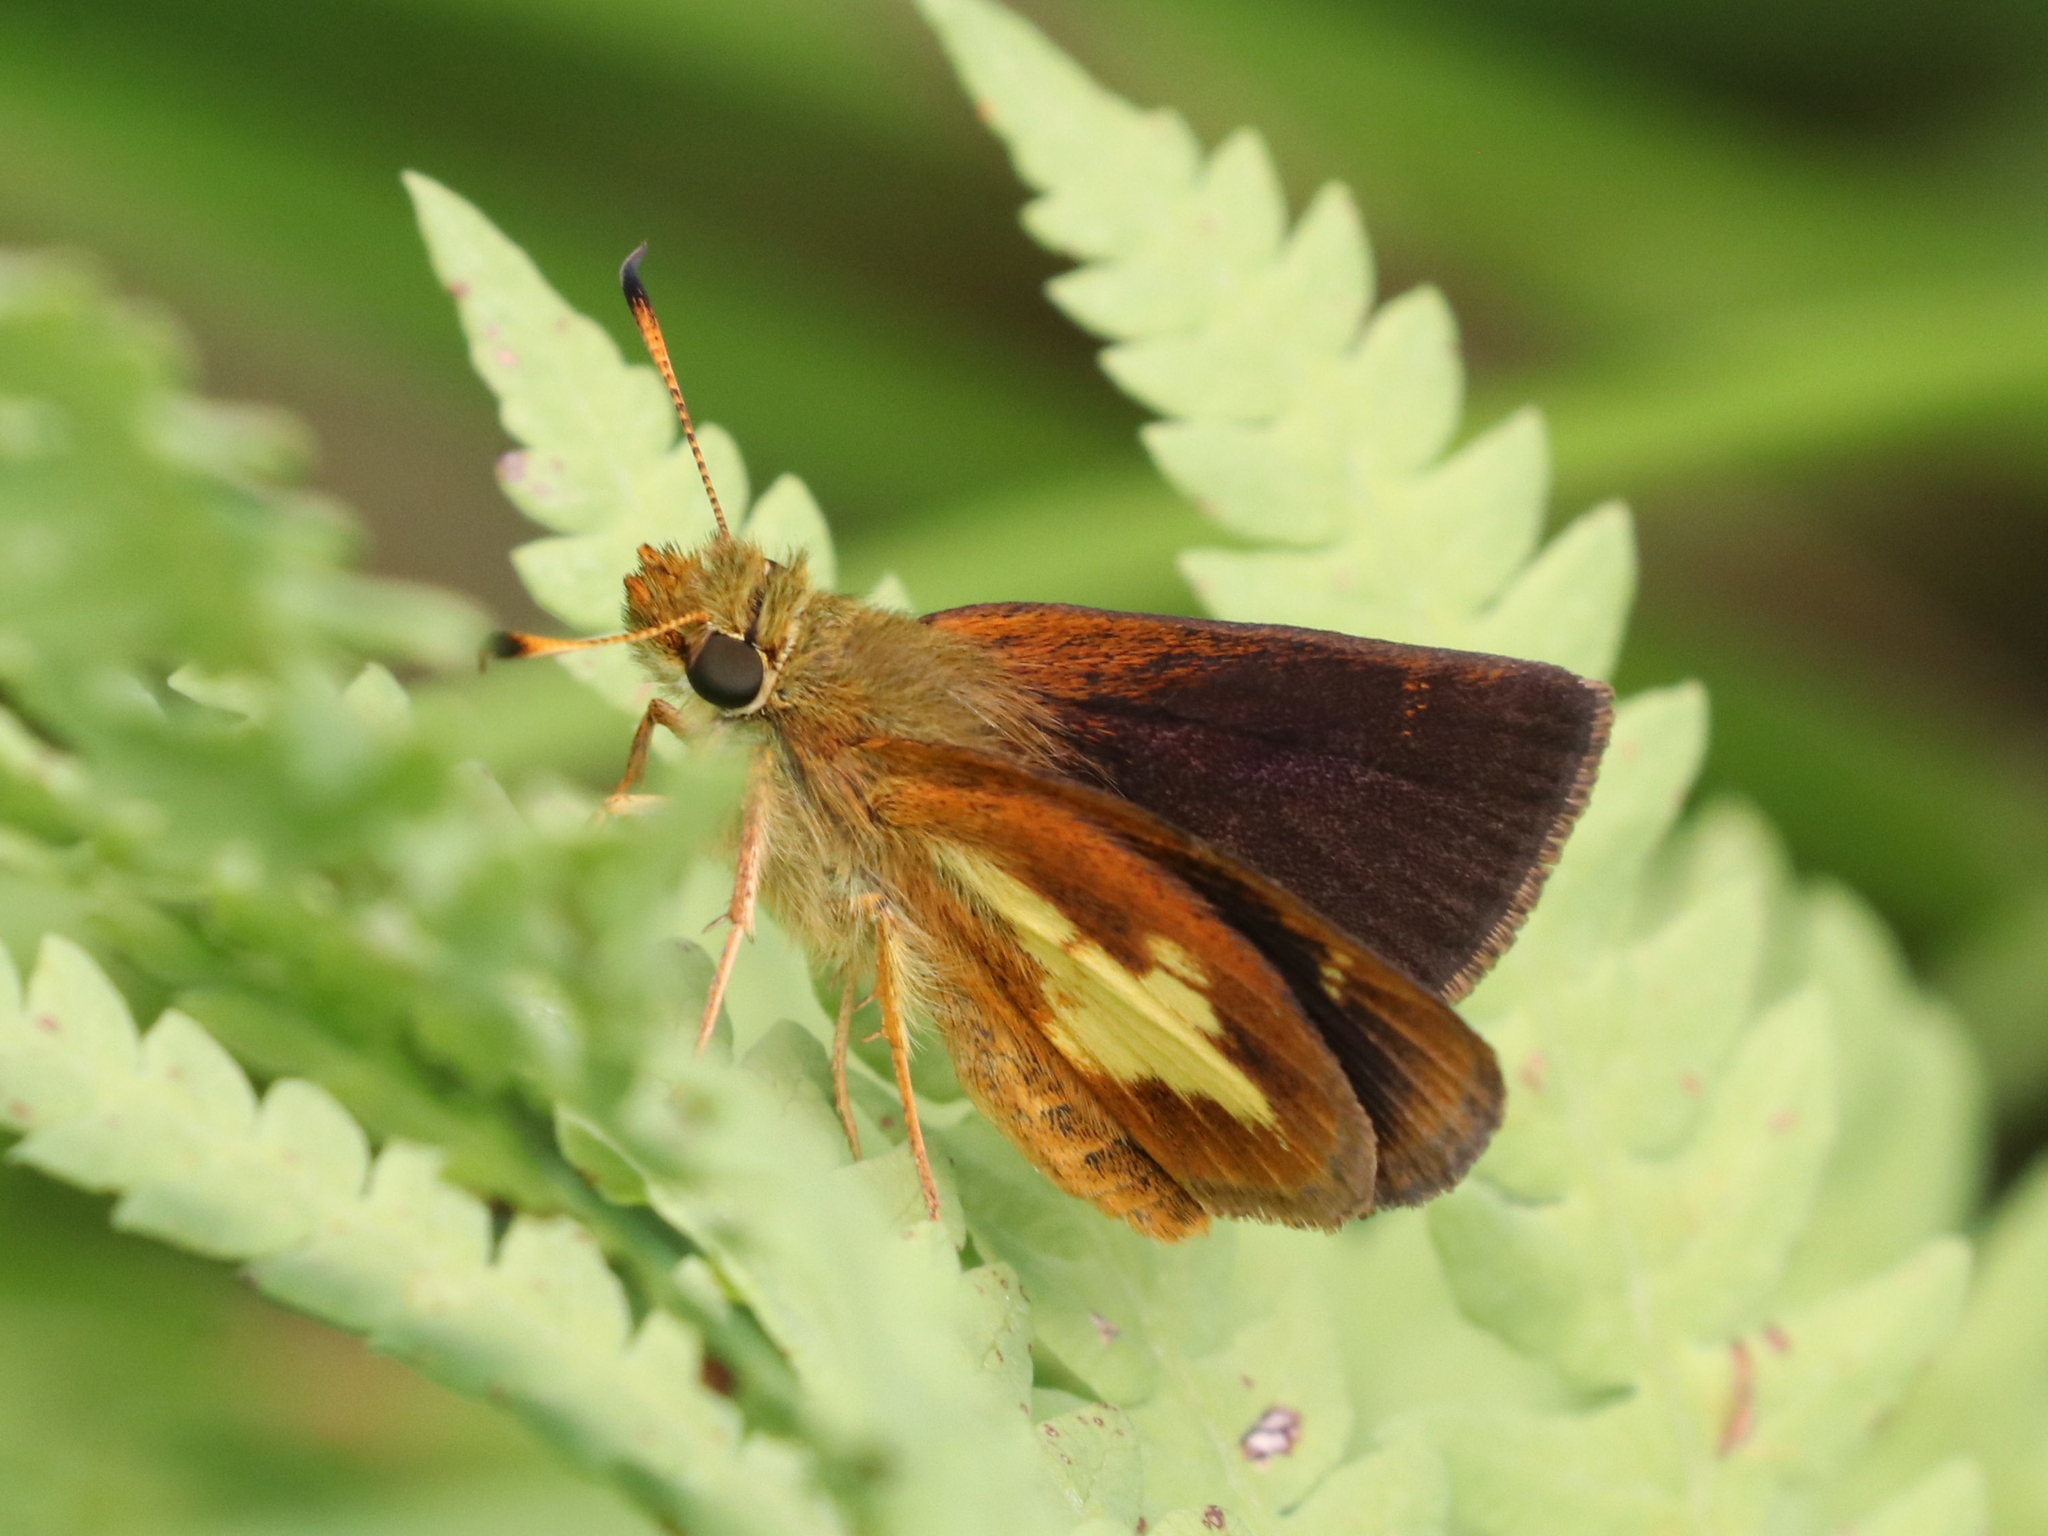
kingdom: Animalia
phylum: Arthropoda
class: Insecta
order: Lepidoptera
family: Hesperiidae
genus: Poanes
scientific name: Poanes massasoit
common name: Mulberrywing
